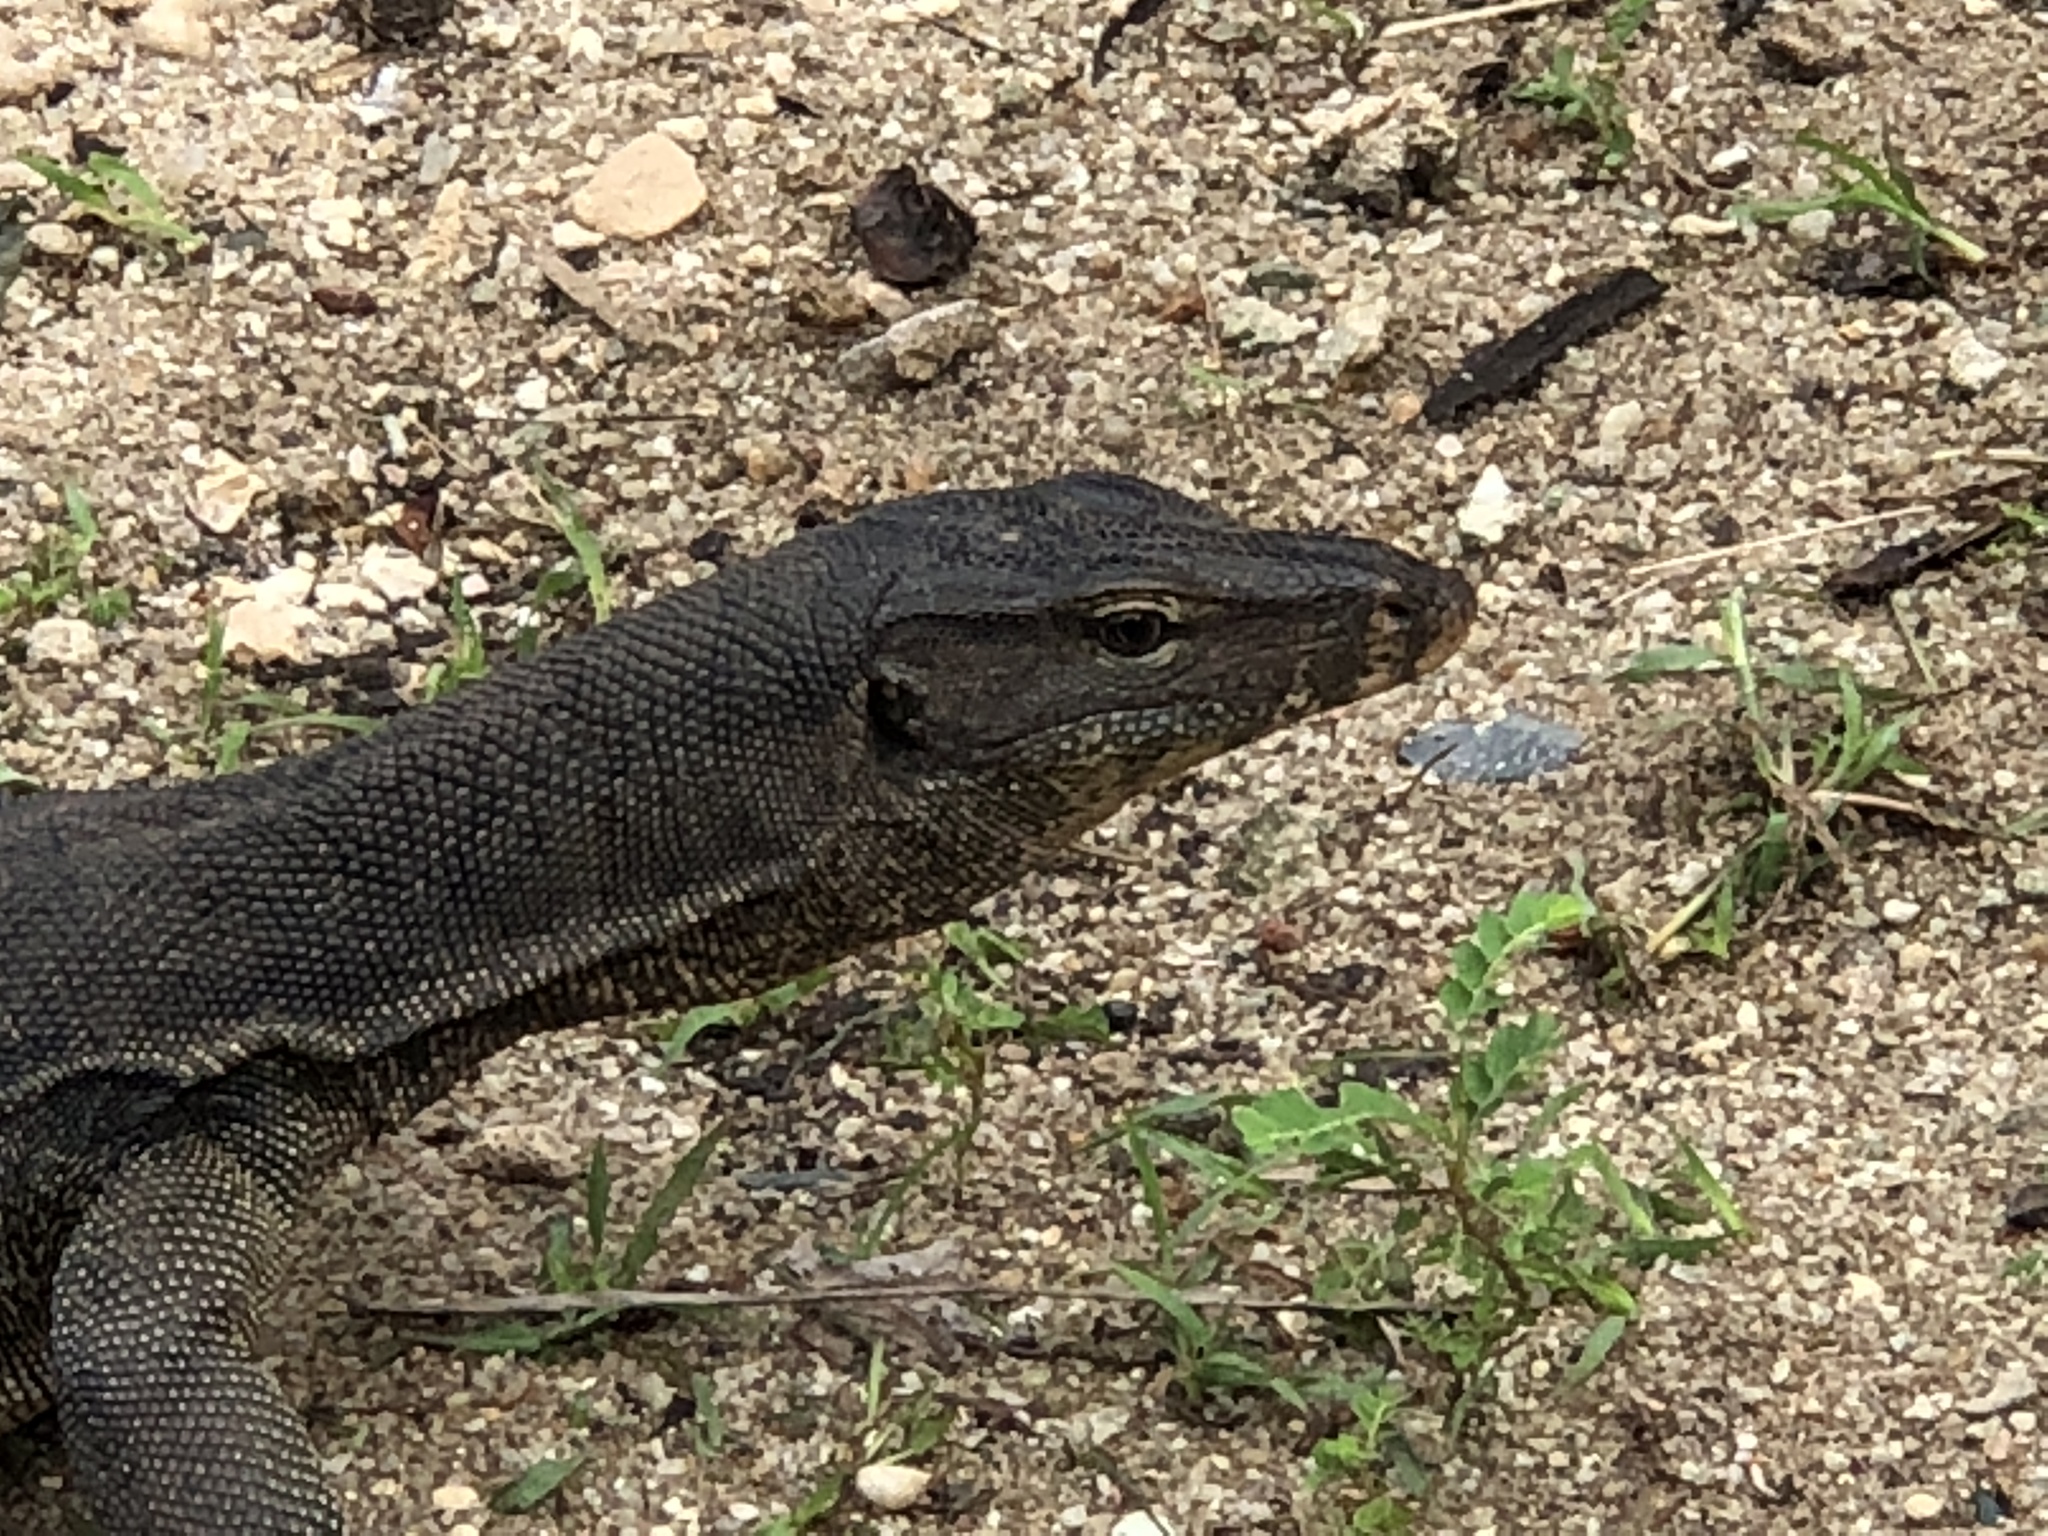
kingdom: Animalia
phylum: Chordata
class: Squamata
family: Varanidae
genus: Varanus
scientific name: Varanus salvator
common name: Common water monitor
